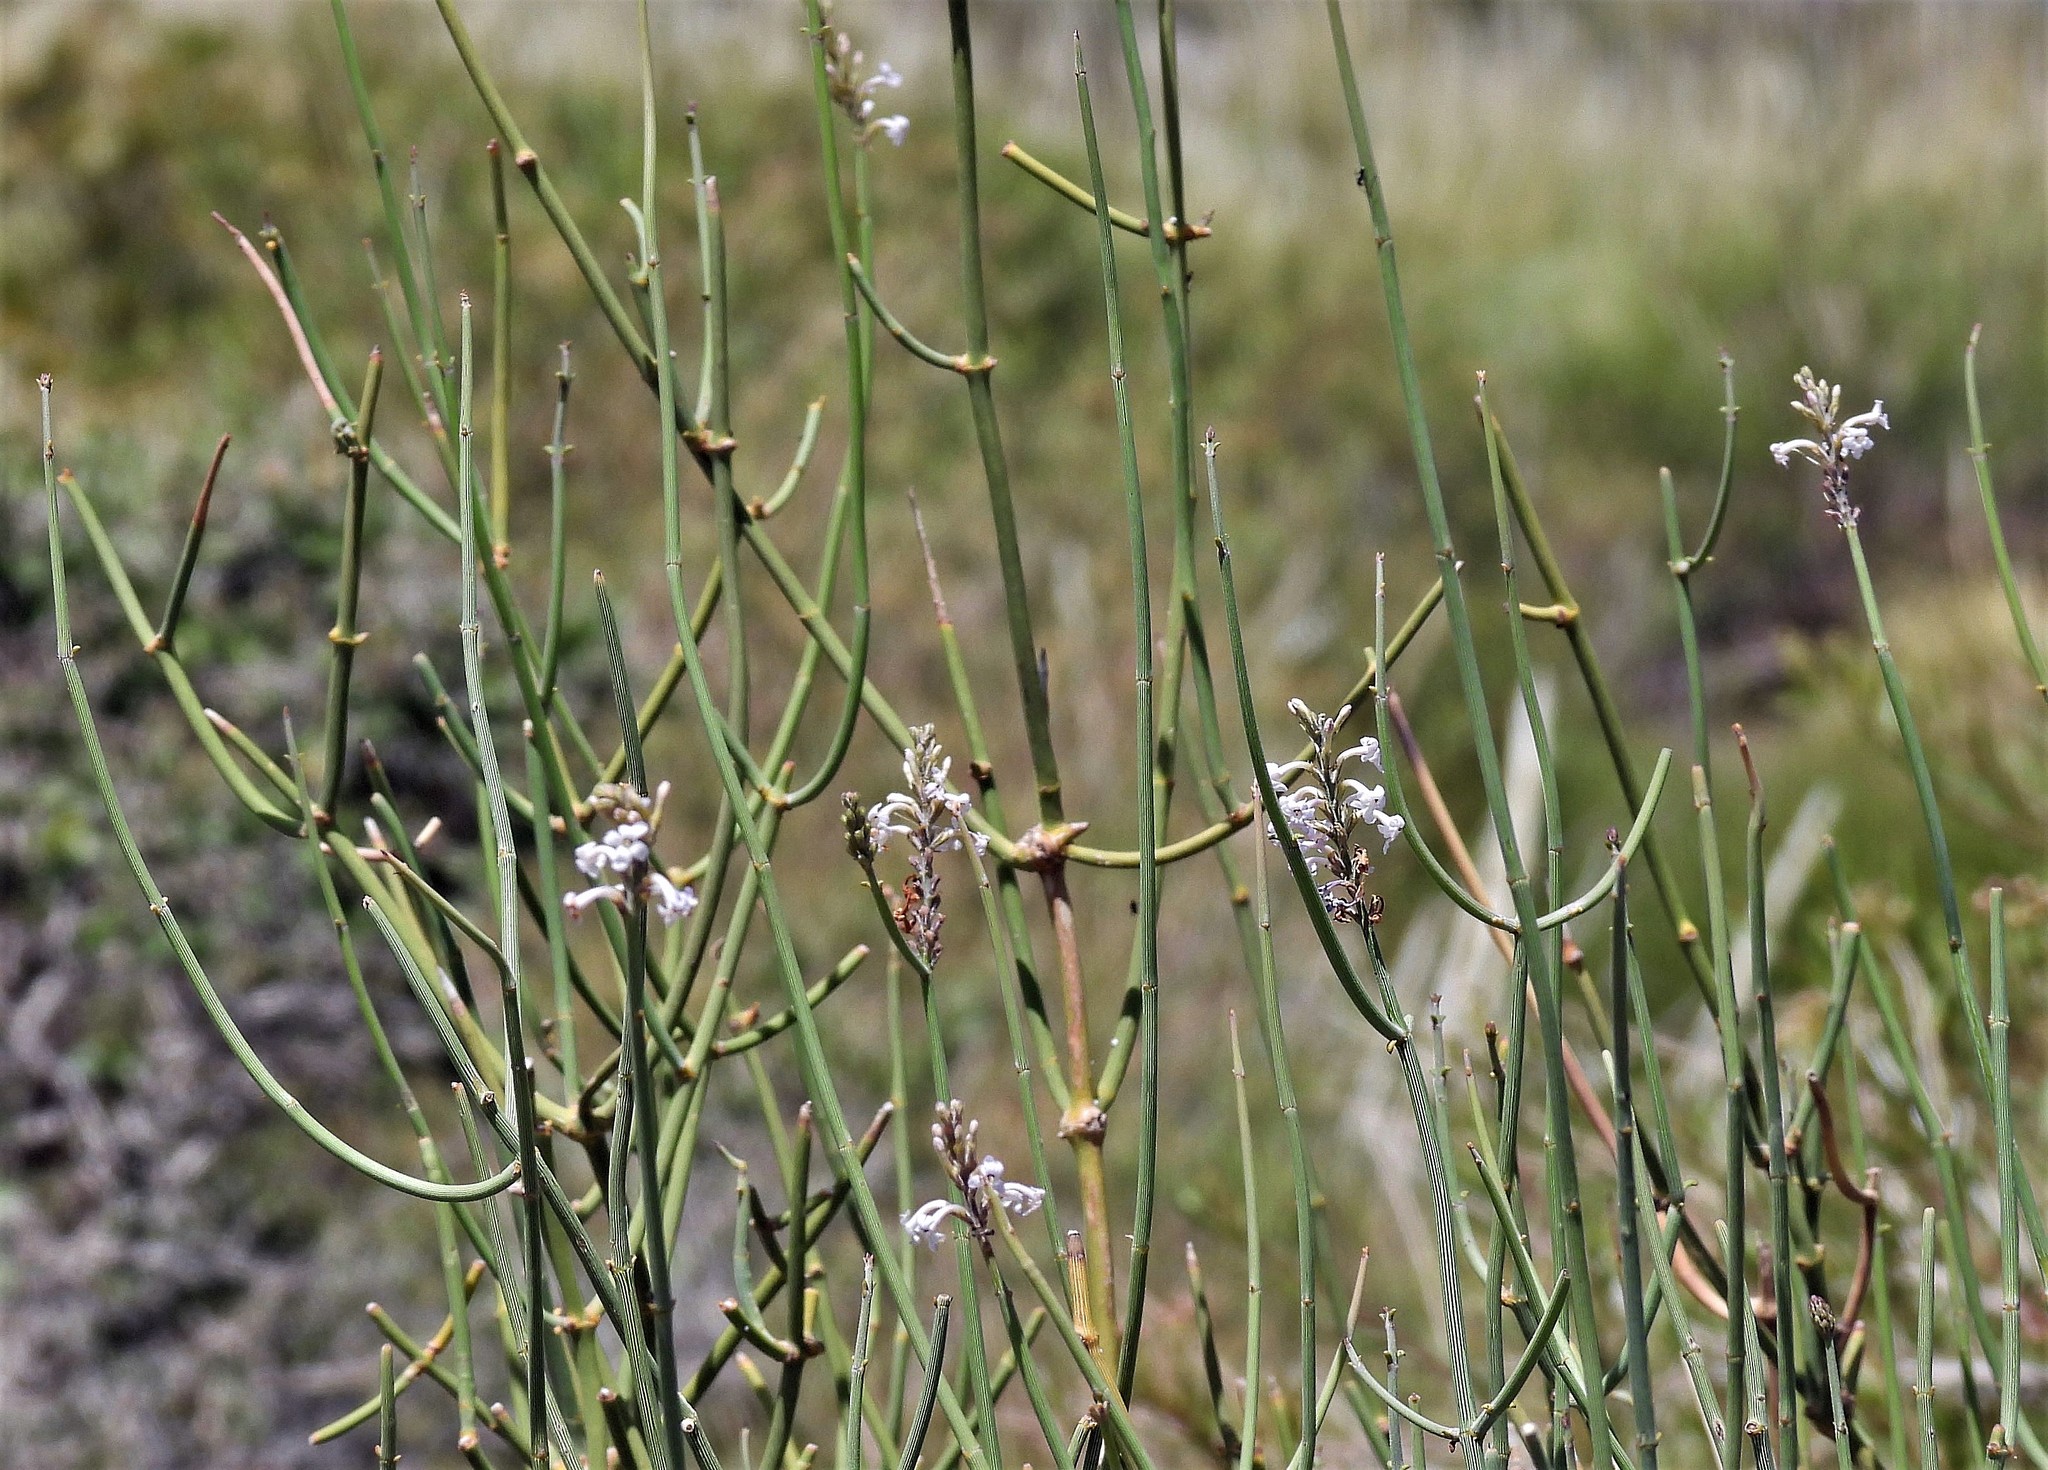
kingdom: Plantae
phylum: Tracheophyta
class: Magnoliopsida
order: Lamiales
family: Verbenaceae
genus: Neosparton
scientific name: Neosparton aphyllum
